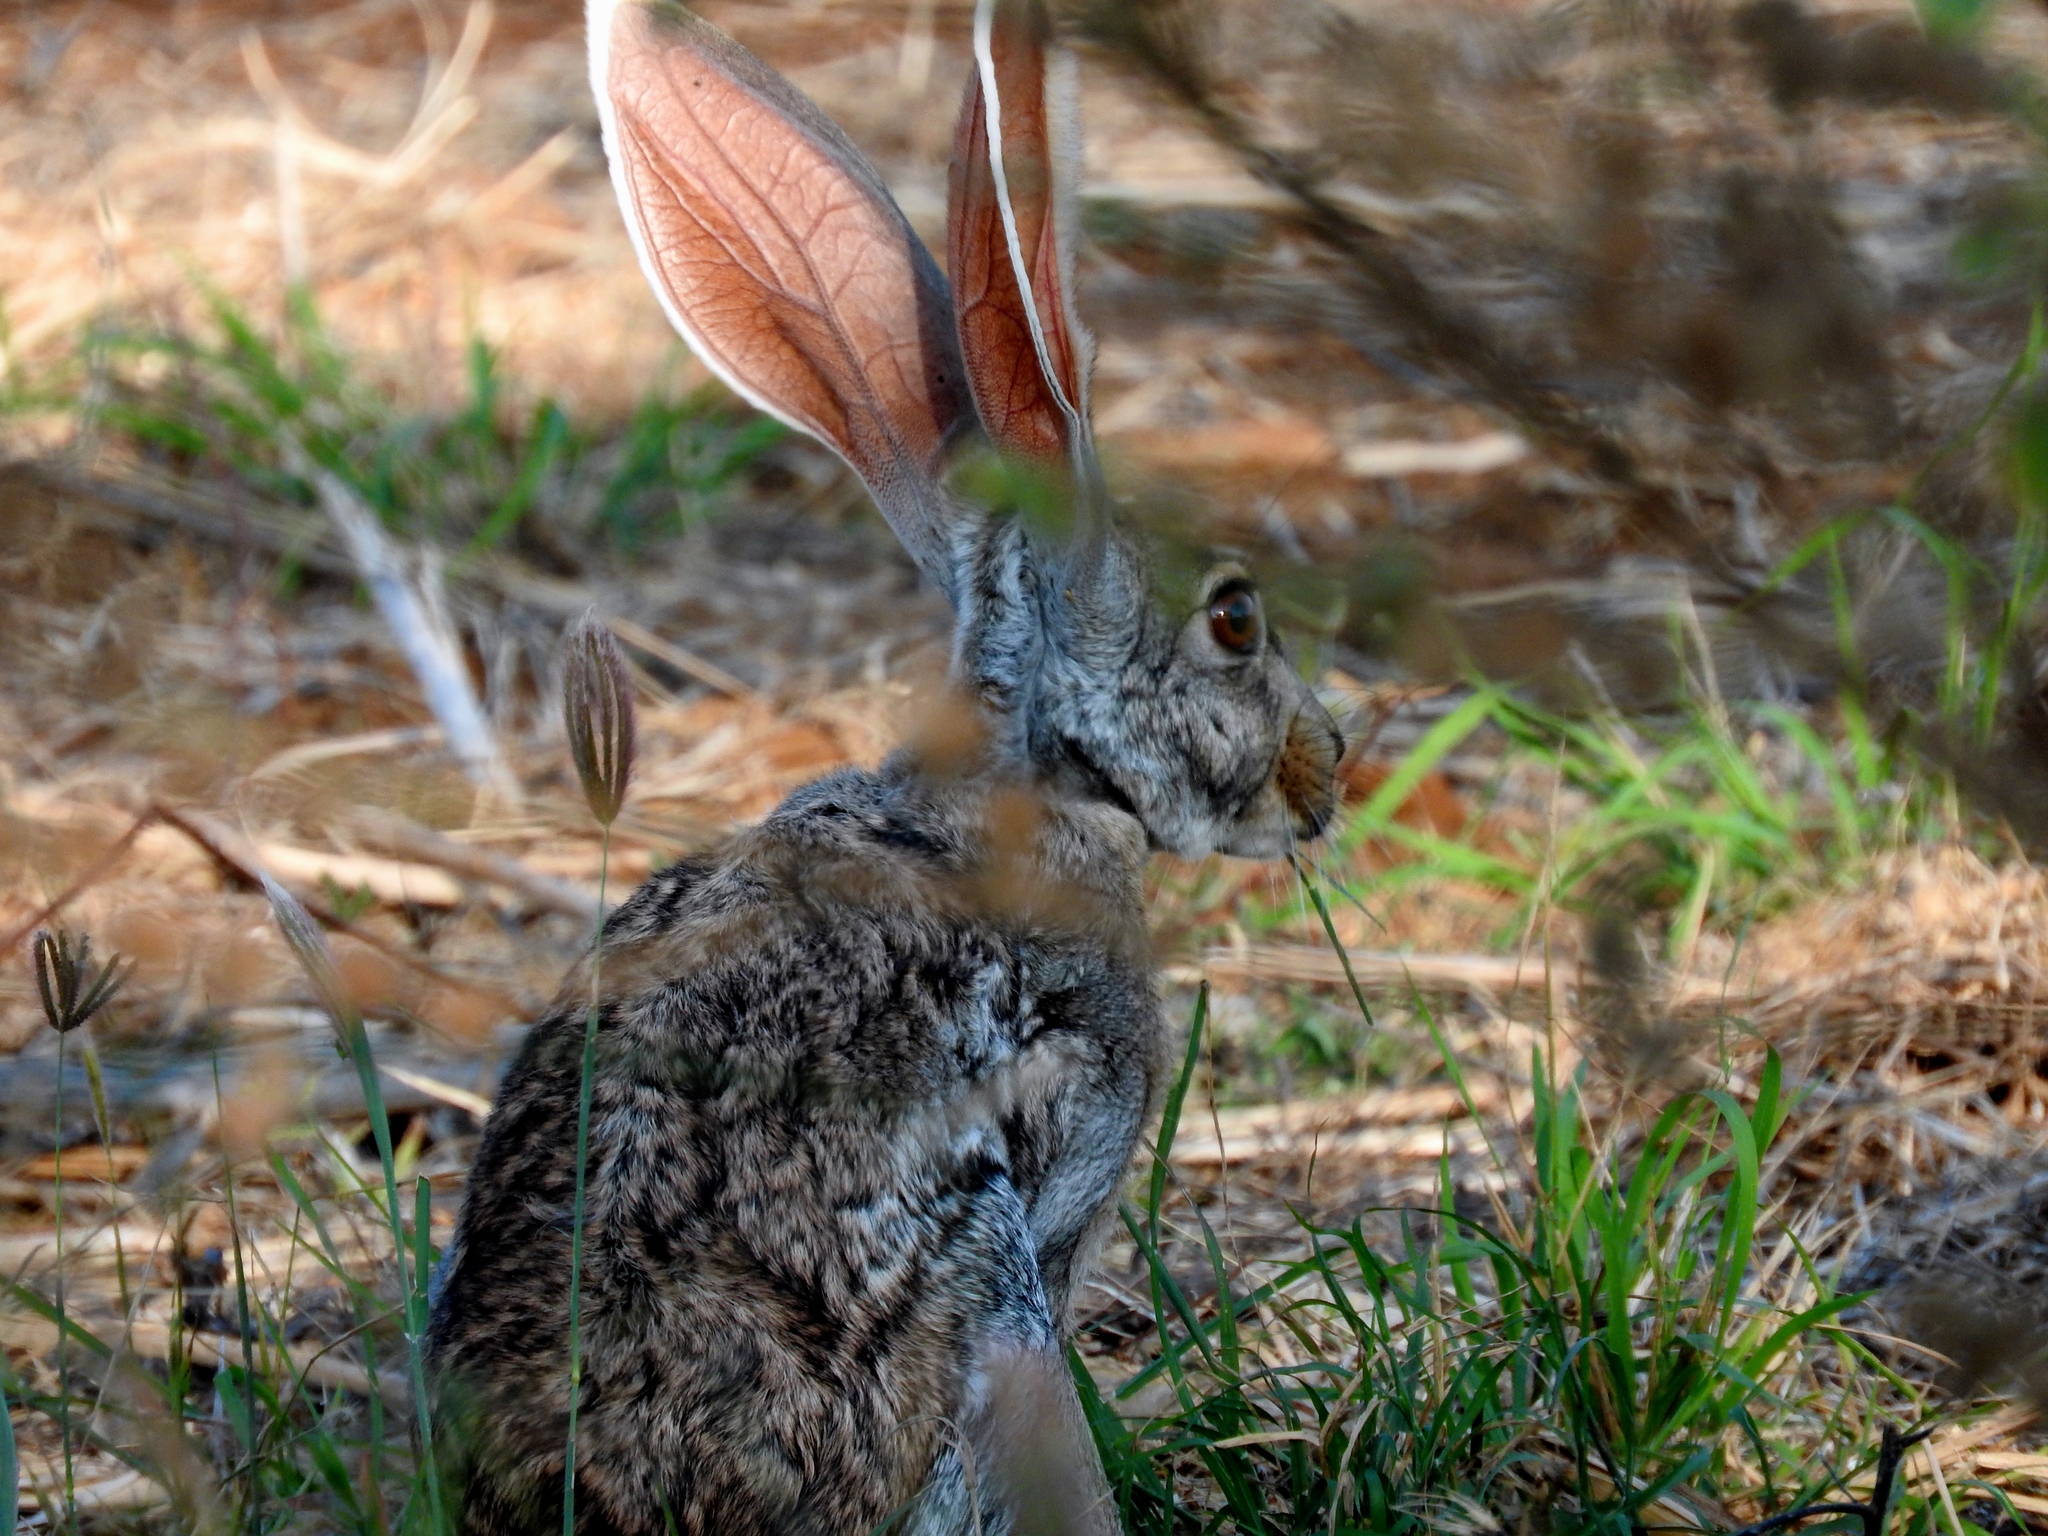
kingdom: Animalia
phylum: Chordata
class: Mammalia
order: Lagomorpha
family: Leporidae
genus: Lepus
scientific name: Lepus alleni
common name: Antelope jackrabbit
